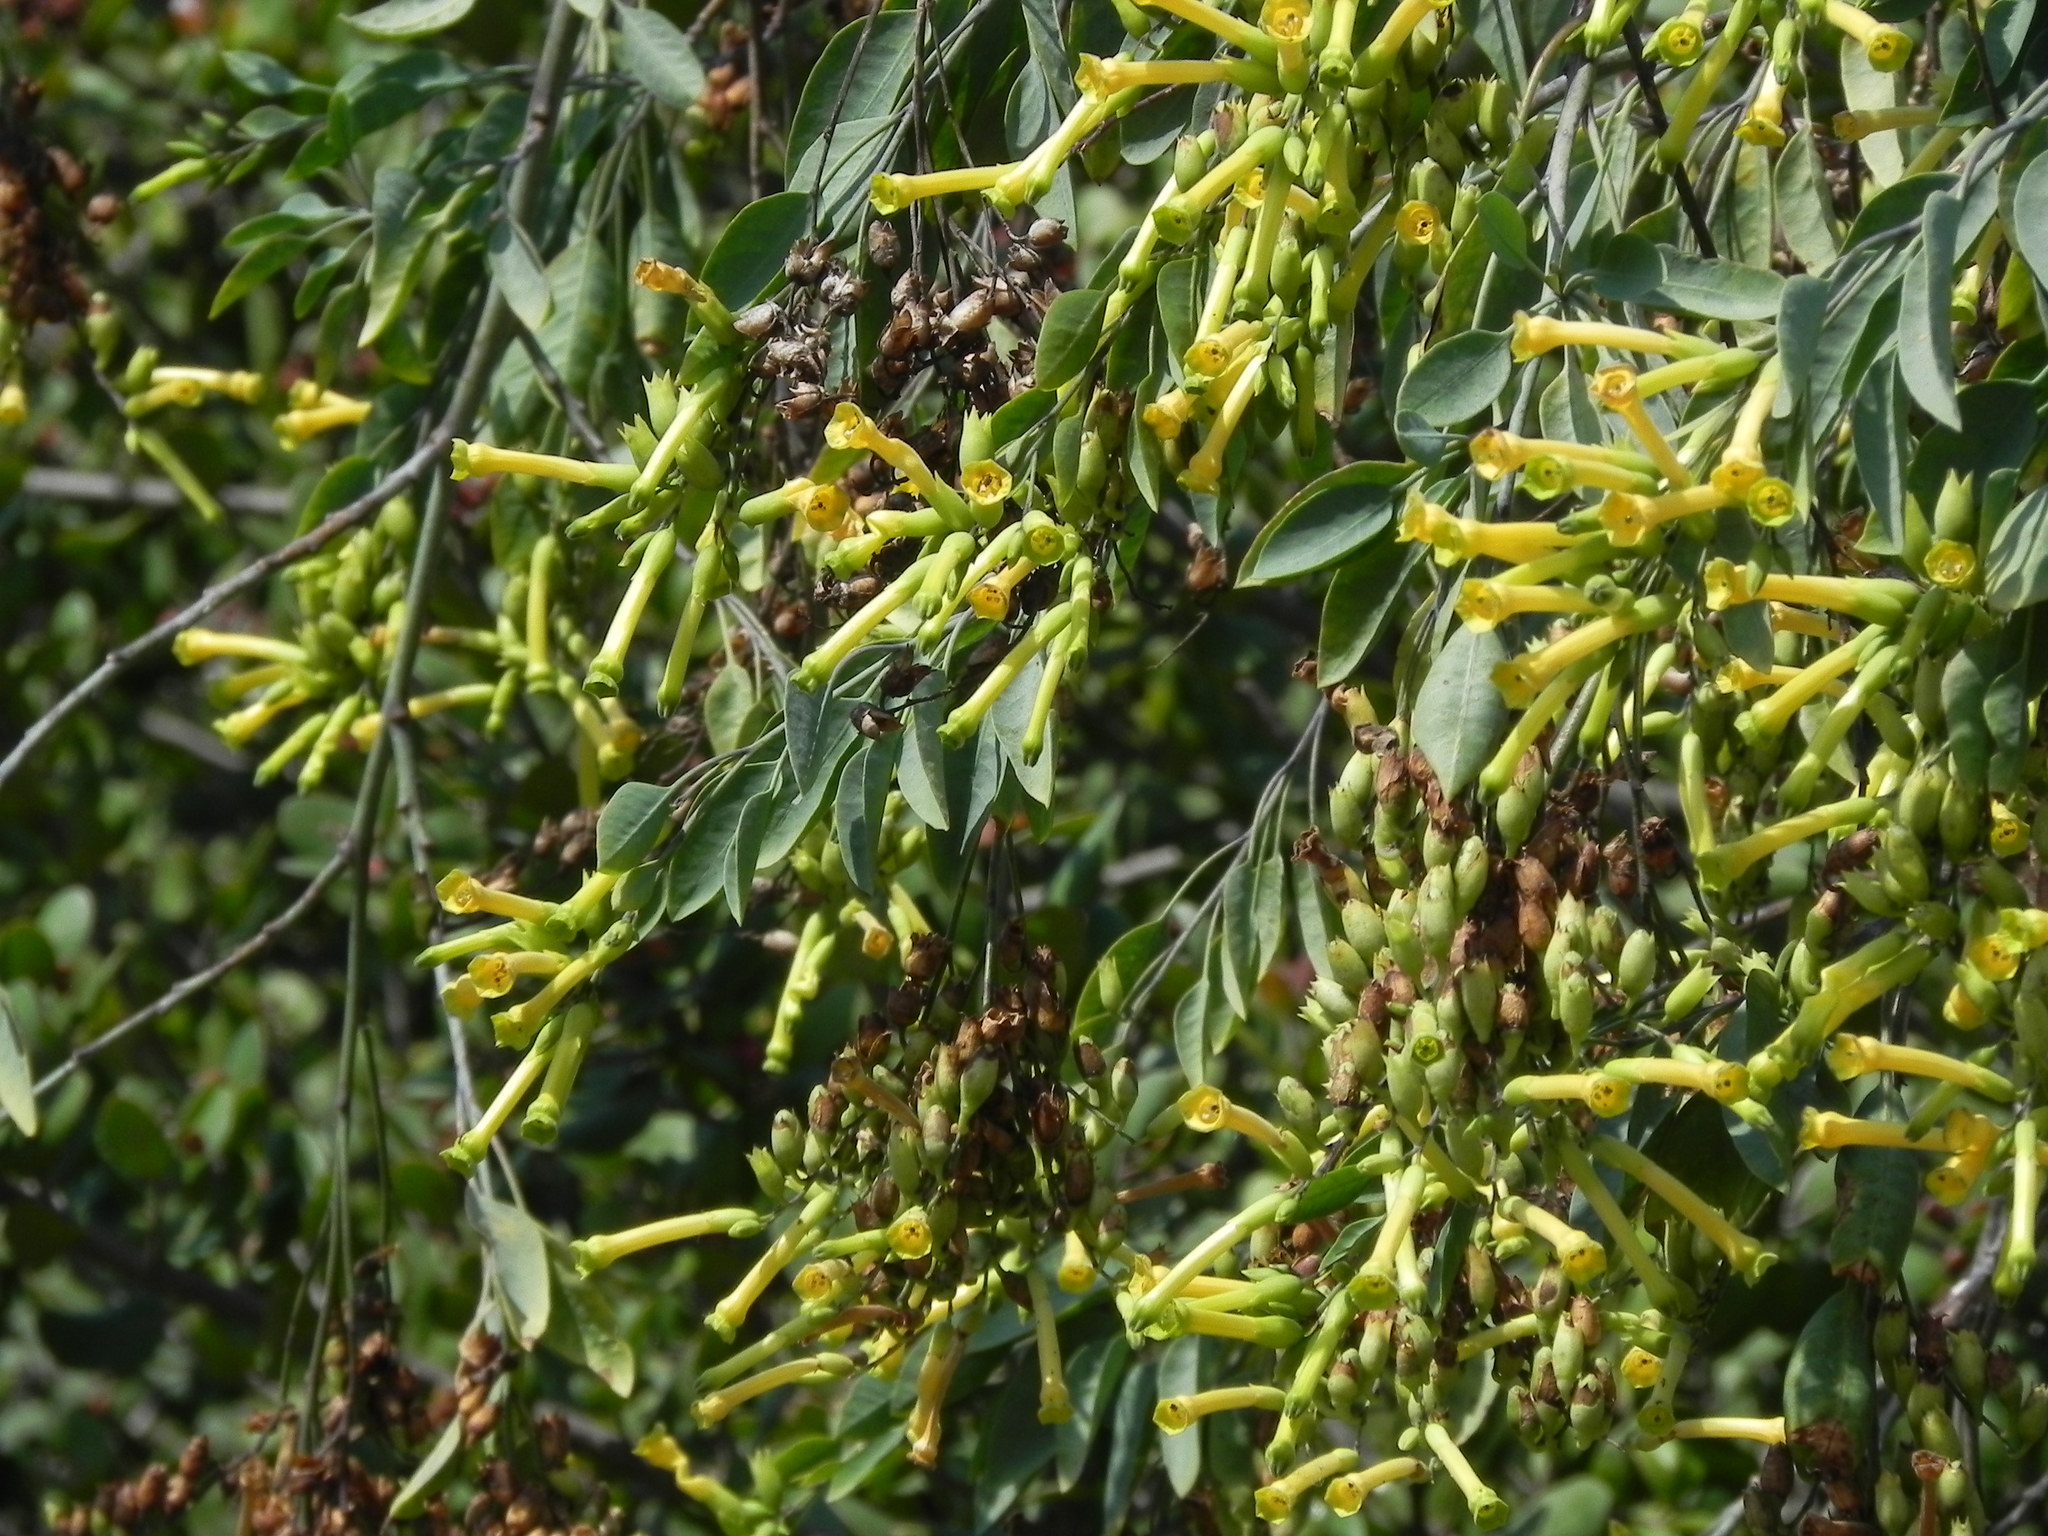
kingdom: Plantae
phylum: Tracheophyta
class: Magnoliopsida
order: Solanales
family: Solanaceae
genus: Nicotiana
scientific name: Nicotiana glauca
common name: Tree tobacco
